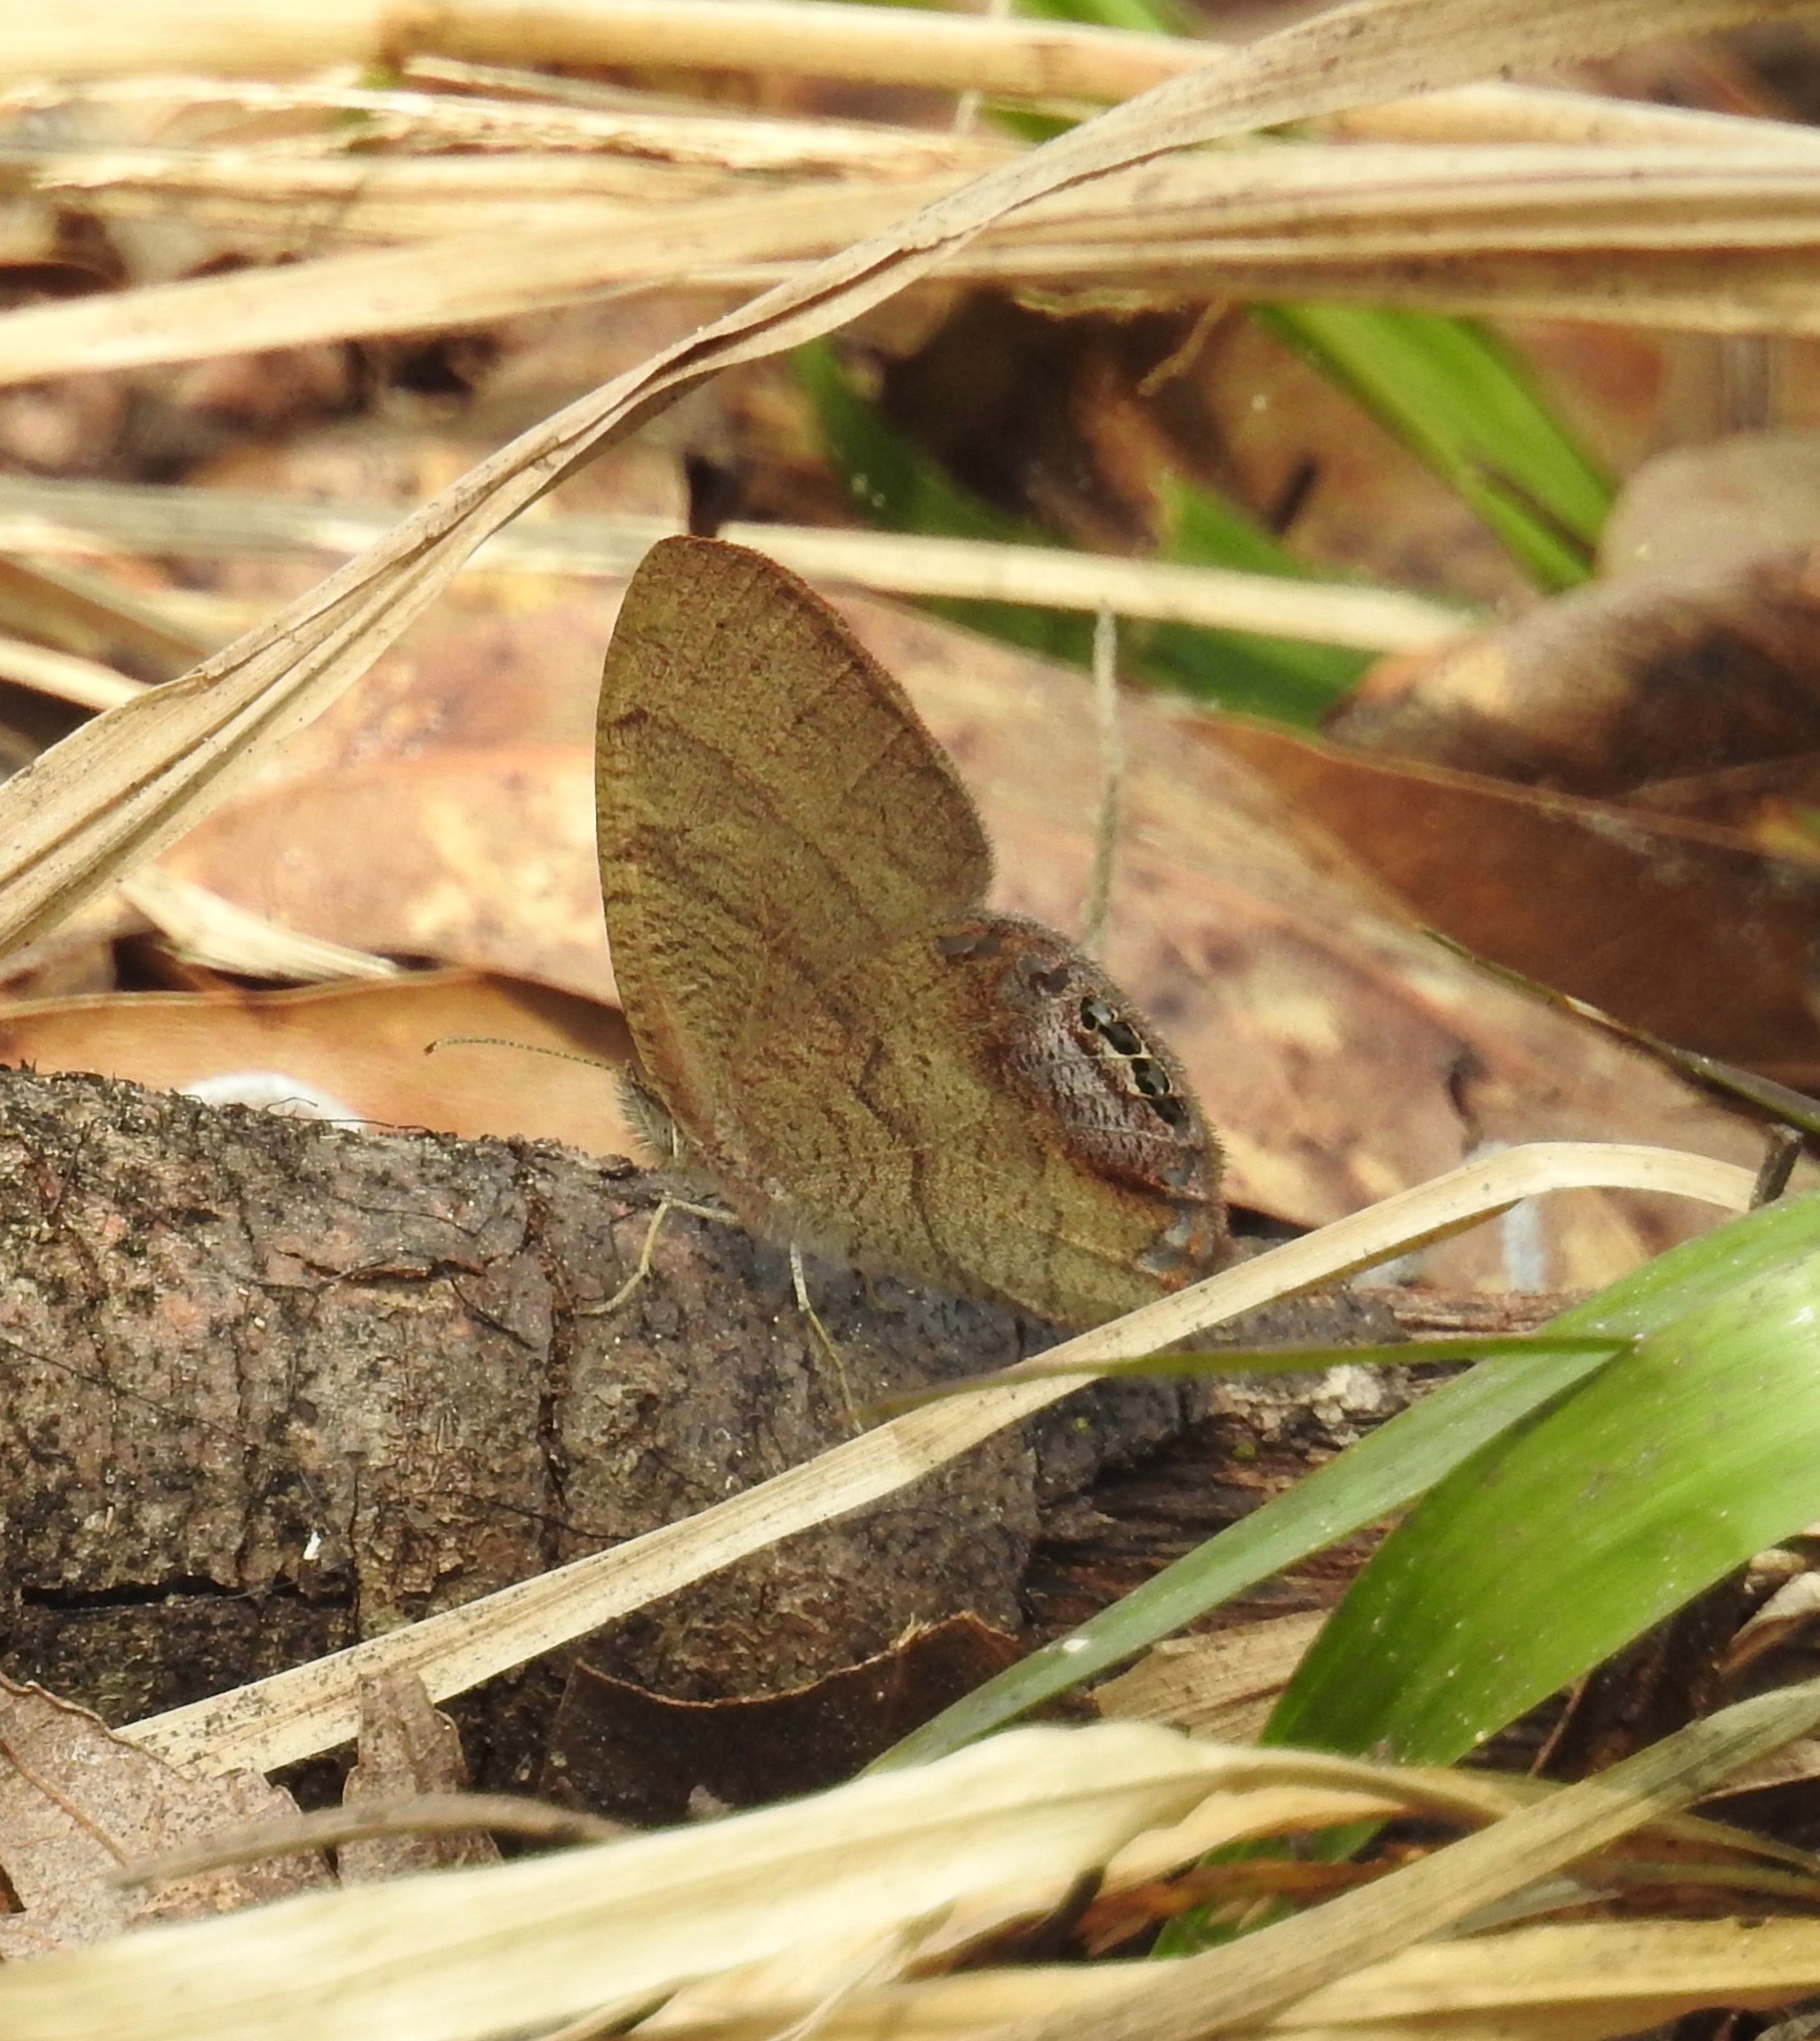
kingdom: Animalia
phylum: Arthropoda
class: Insecta
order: Lepidoptera
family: Nymphalidae
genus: Euptychia
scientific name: Euptychia cornelius
